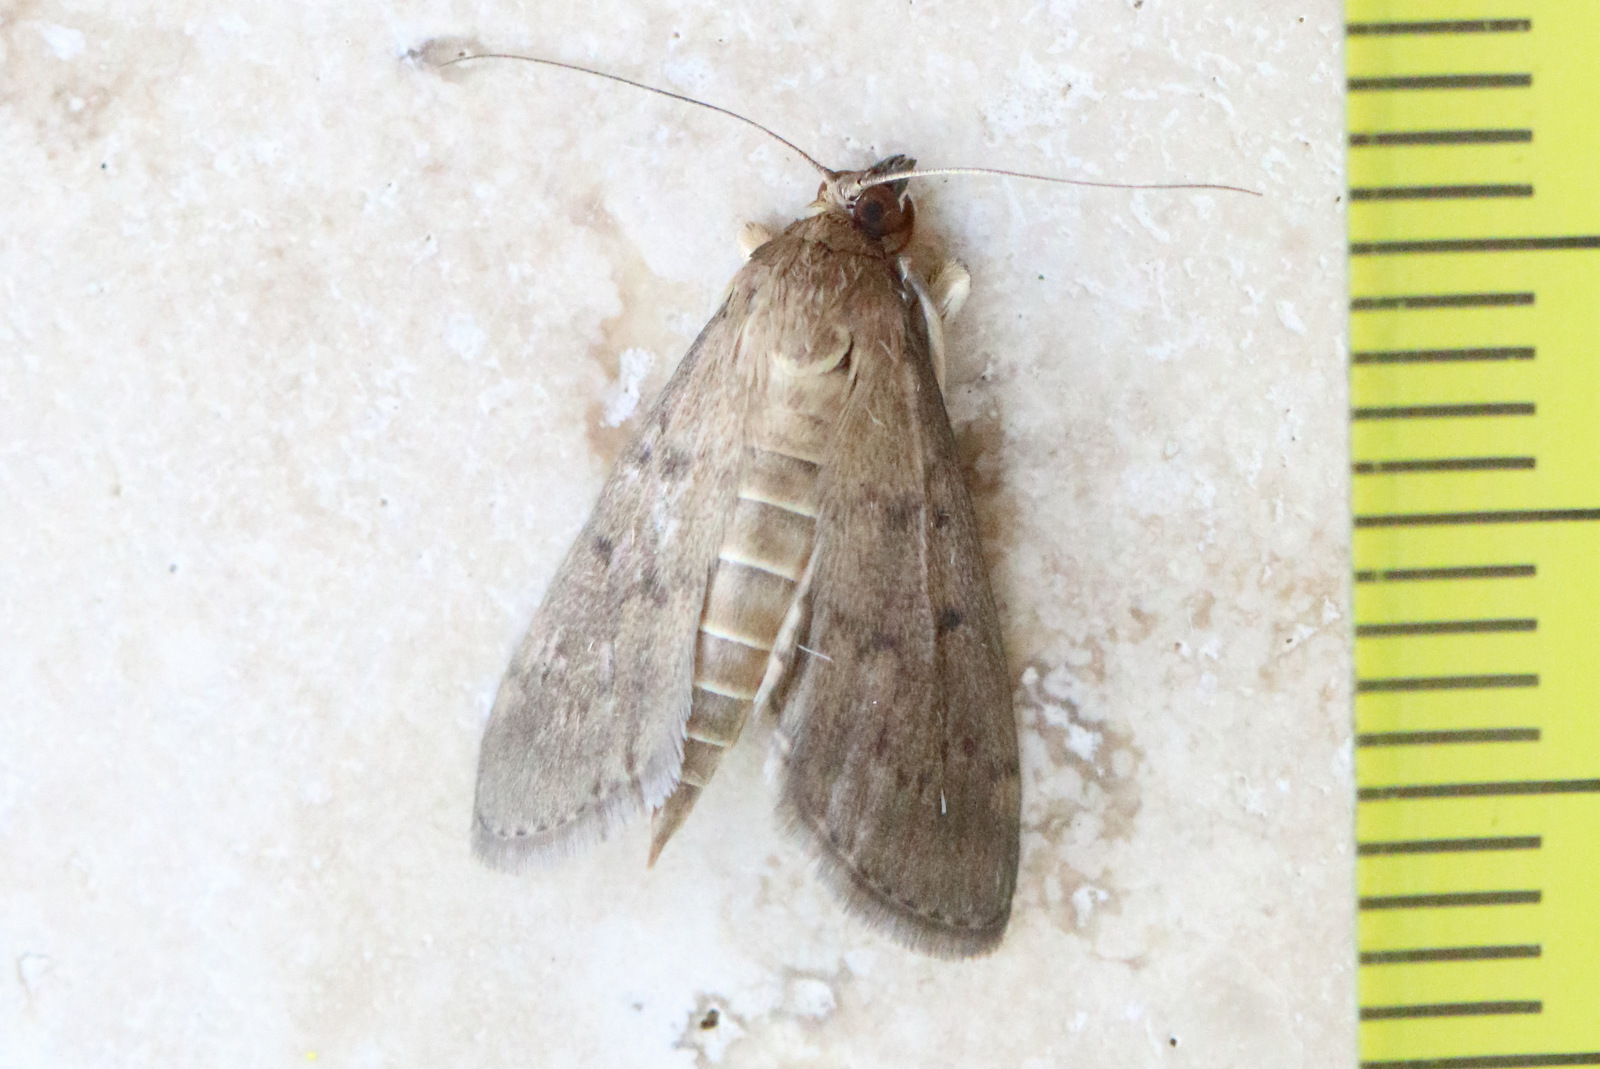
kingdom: Animalia
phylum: Arthropoda
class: Insecta
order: Lepidoptera
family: Crambidae
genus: Herpetogramma
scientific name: Herpetogramma licarsisalis
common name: Grass webworm
